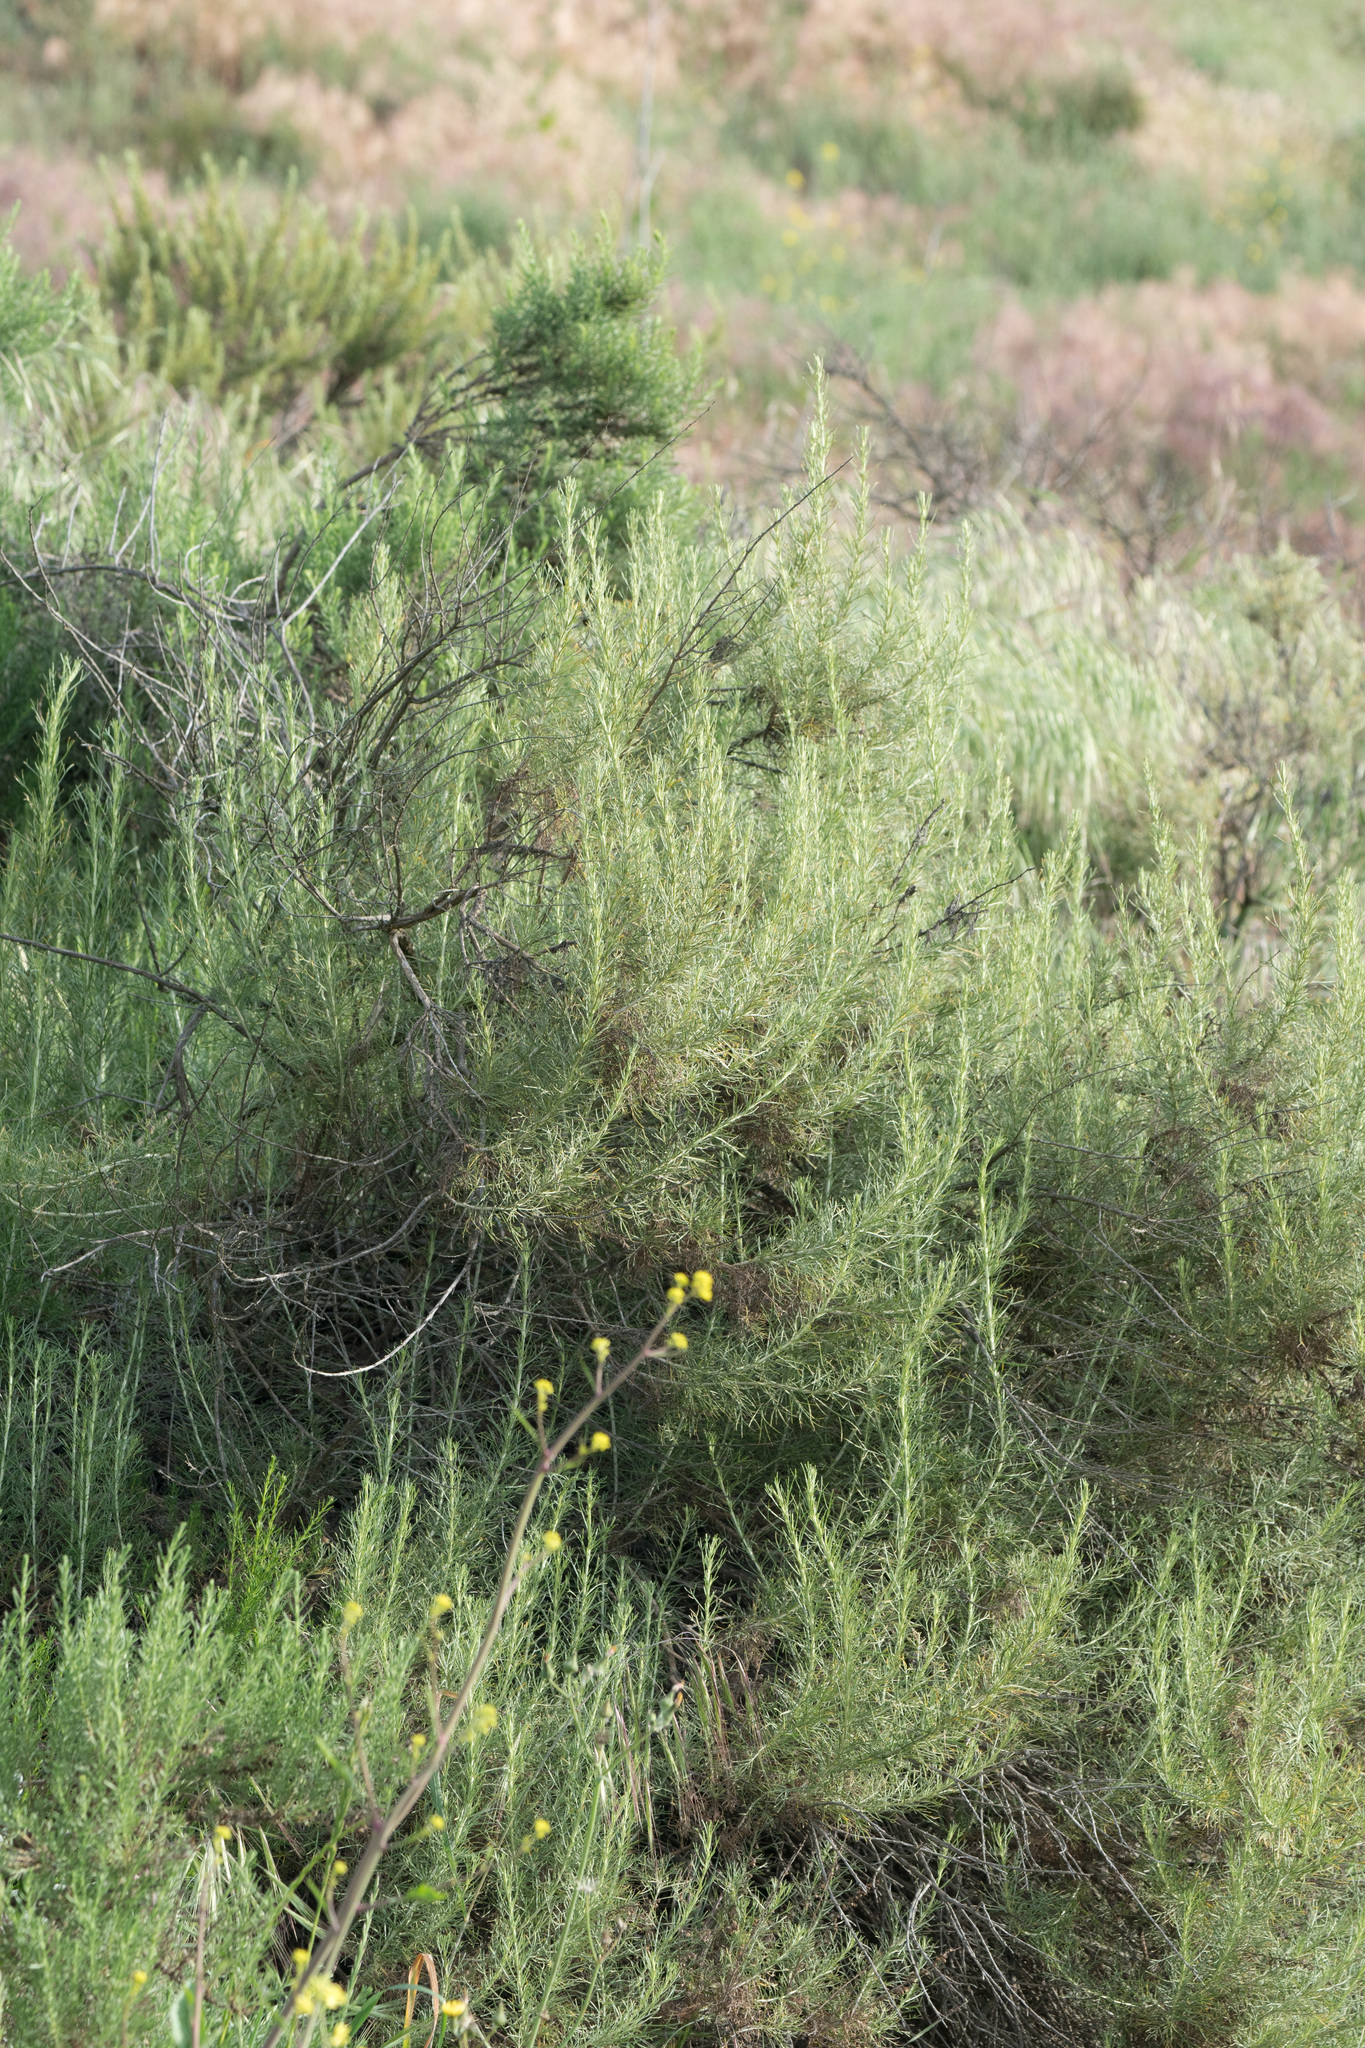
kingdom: Plantae
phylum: Tracheophyta
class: Magnoliopsida
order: Asterales
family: Asteraceae
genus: Artemisia
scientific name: Artemisia californica
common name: California sagebrush
